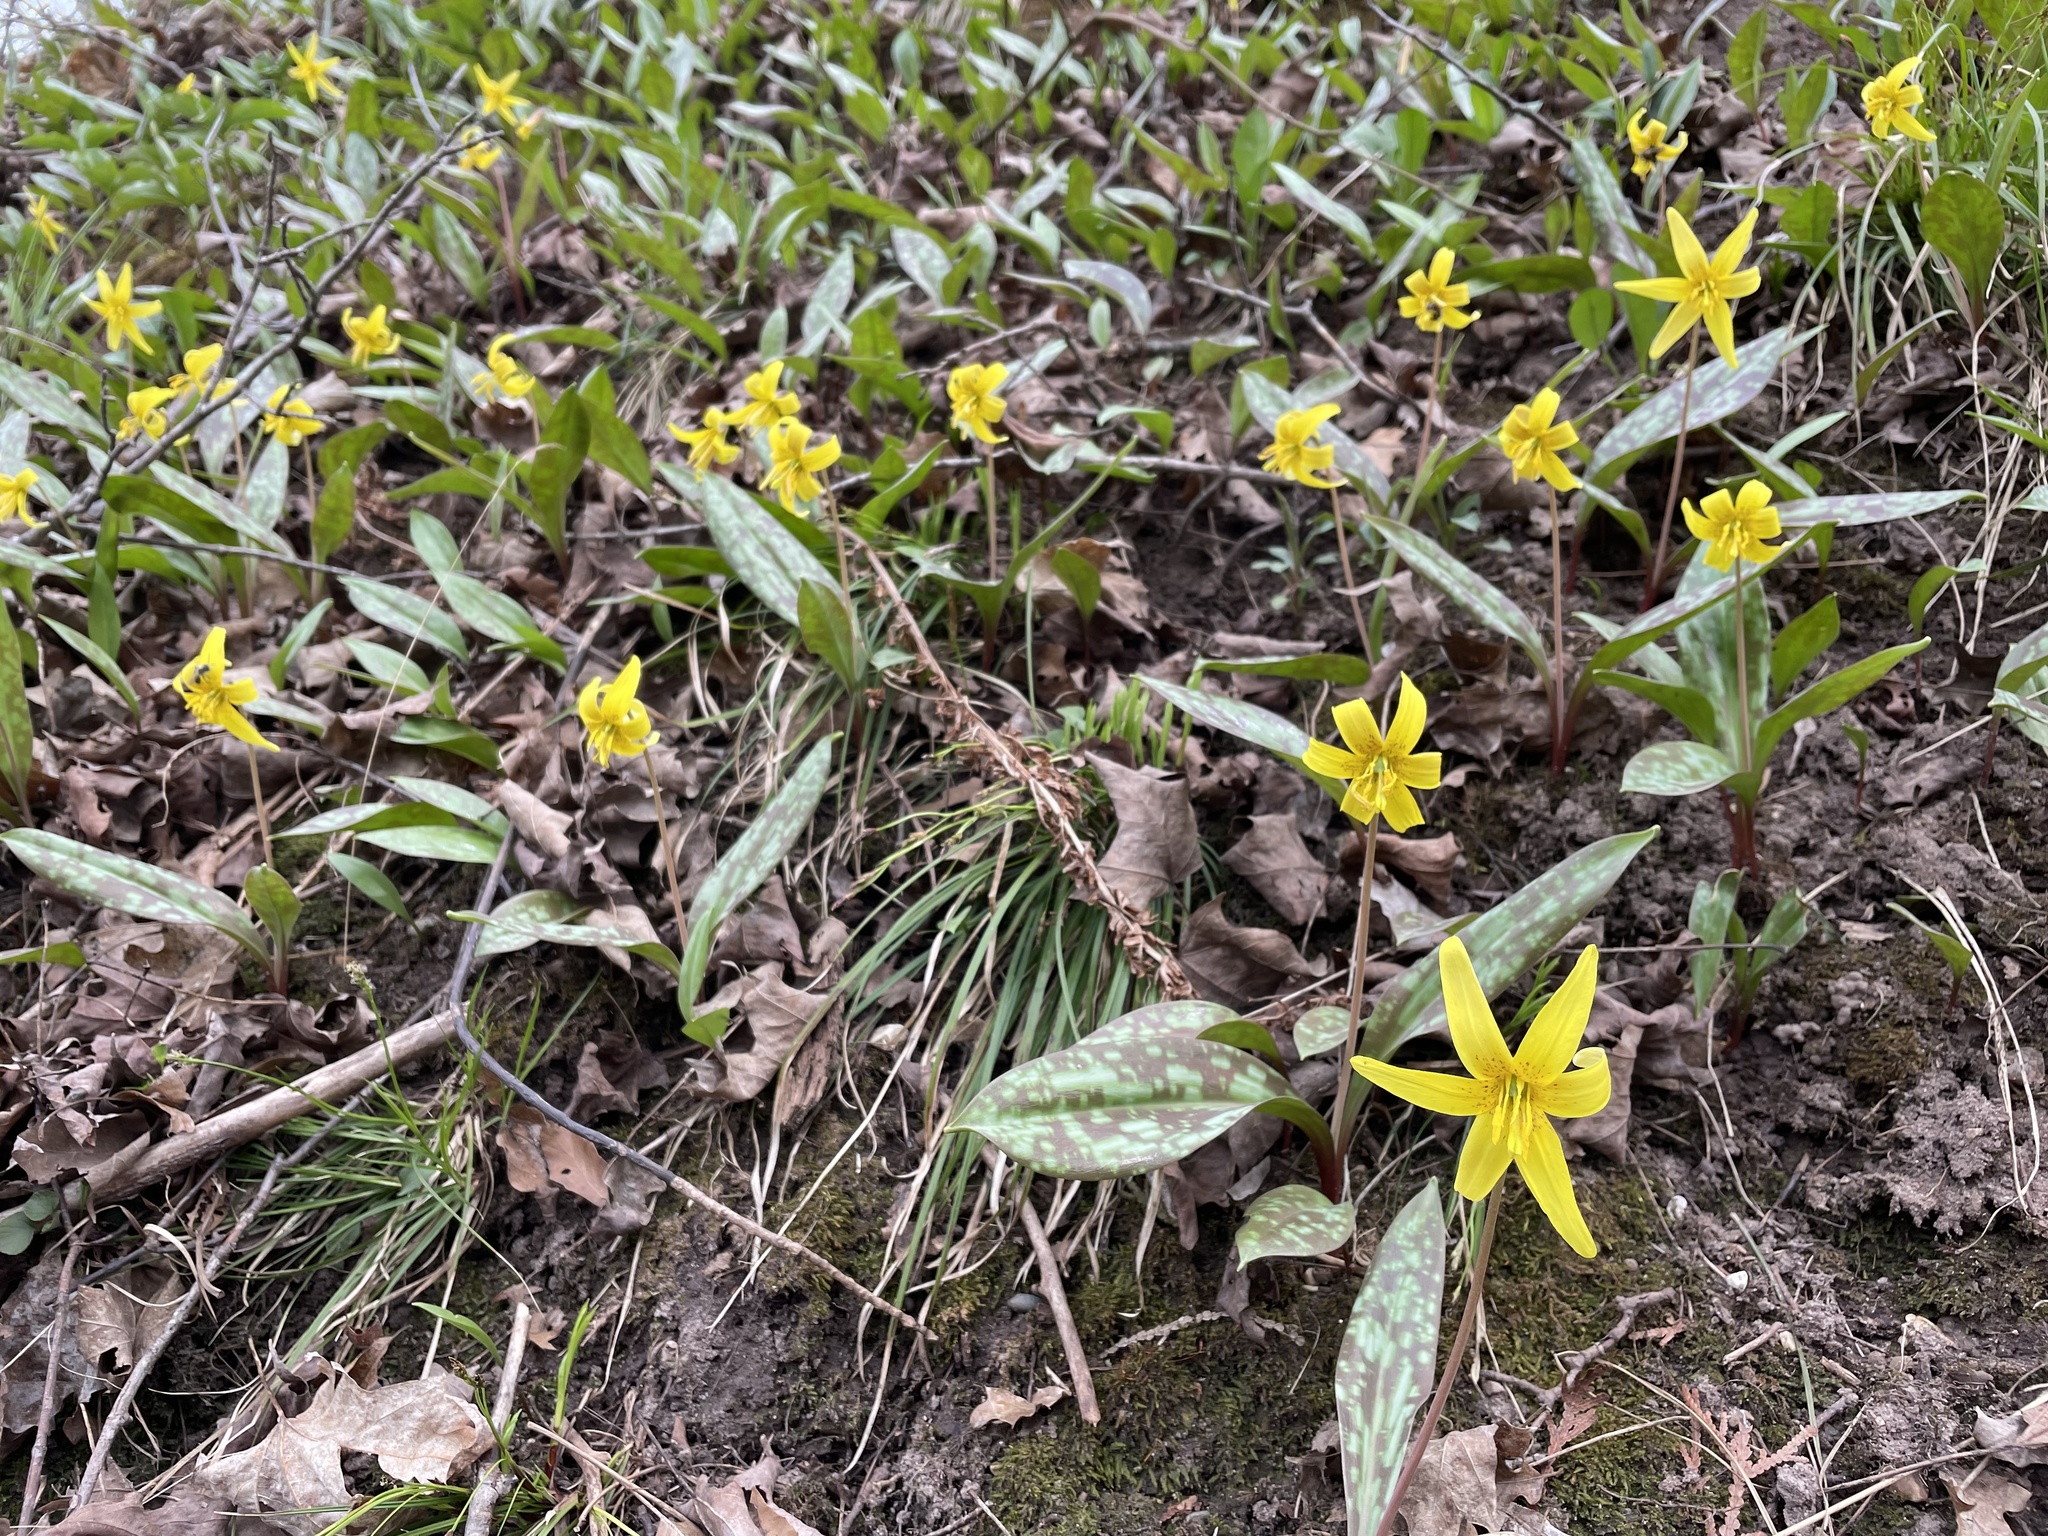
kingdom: Plantae
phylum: Tracheophyta
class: Liliopsida
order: Liliales
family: Liliaceae
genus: Erythronium
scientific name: Erythronium americanum
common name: Yellow adder's-tongue
